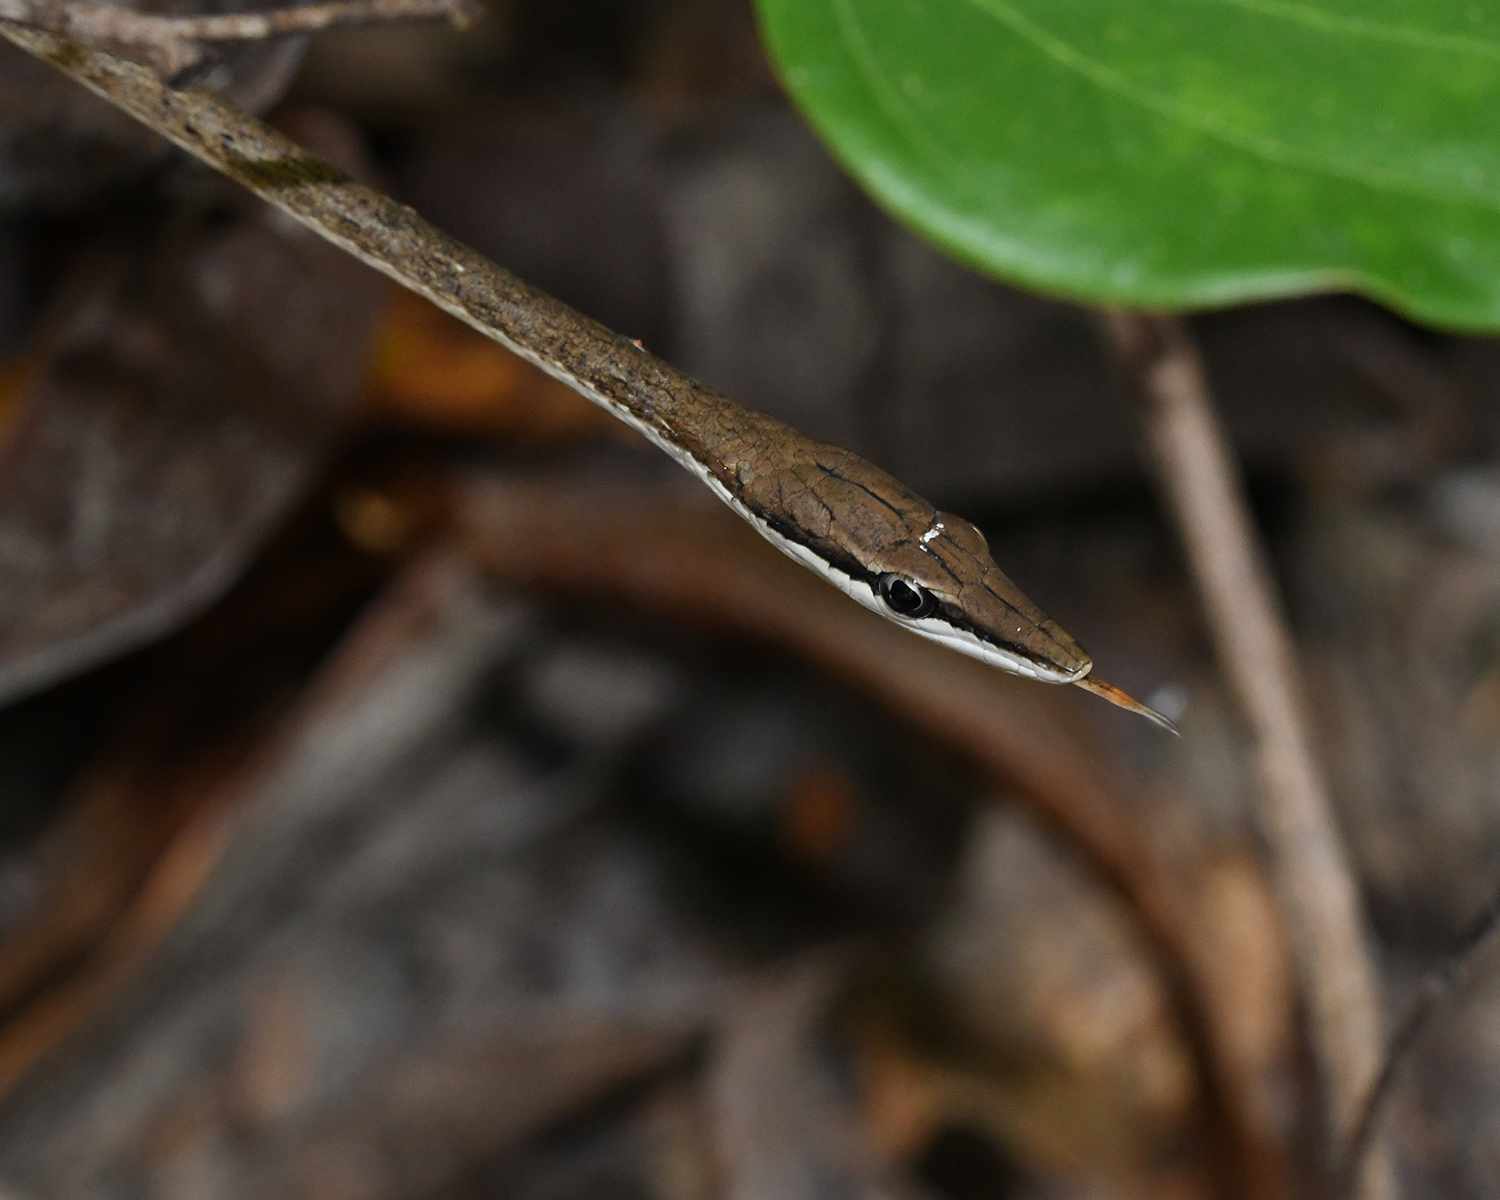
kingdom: Animalia
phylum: Chordata
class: Squamata
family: Colubridae
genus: Oxybelis
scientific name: Oxybelis rutherfordi
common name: Rutherford’s vine snake
